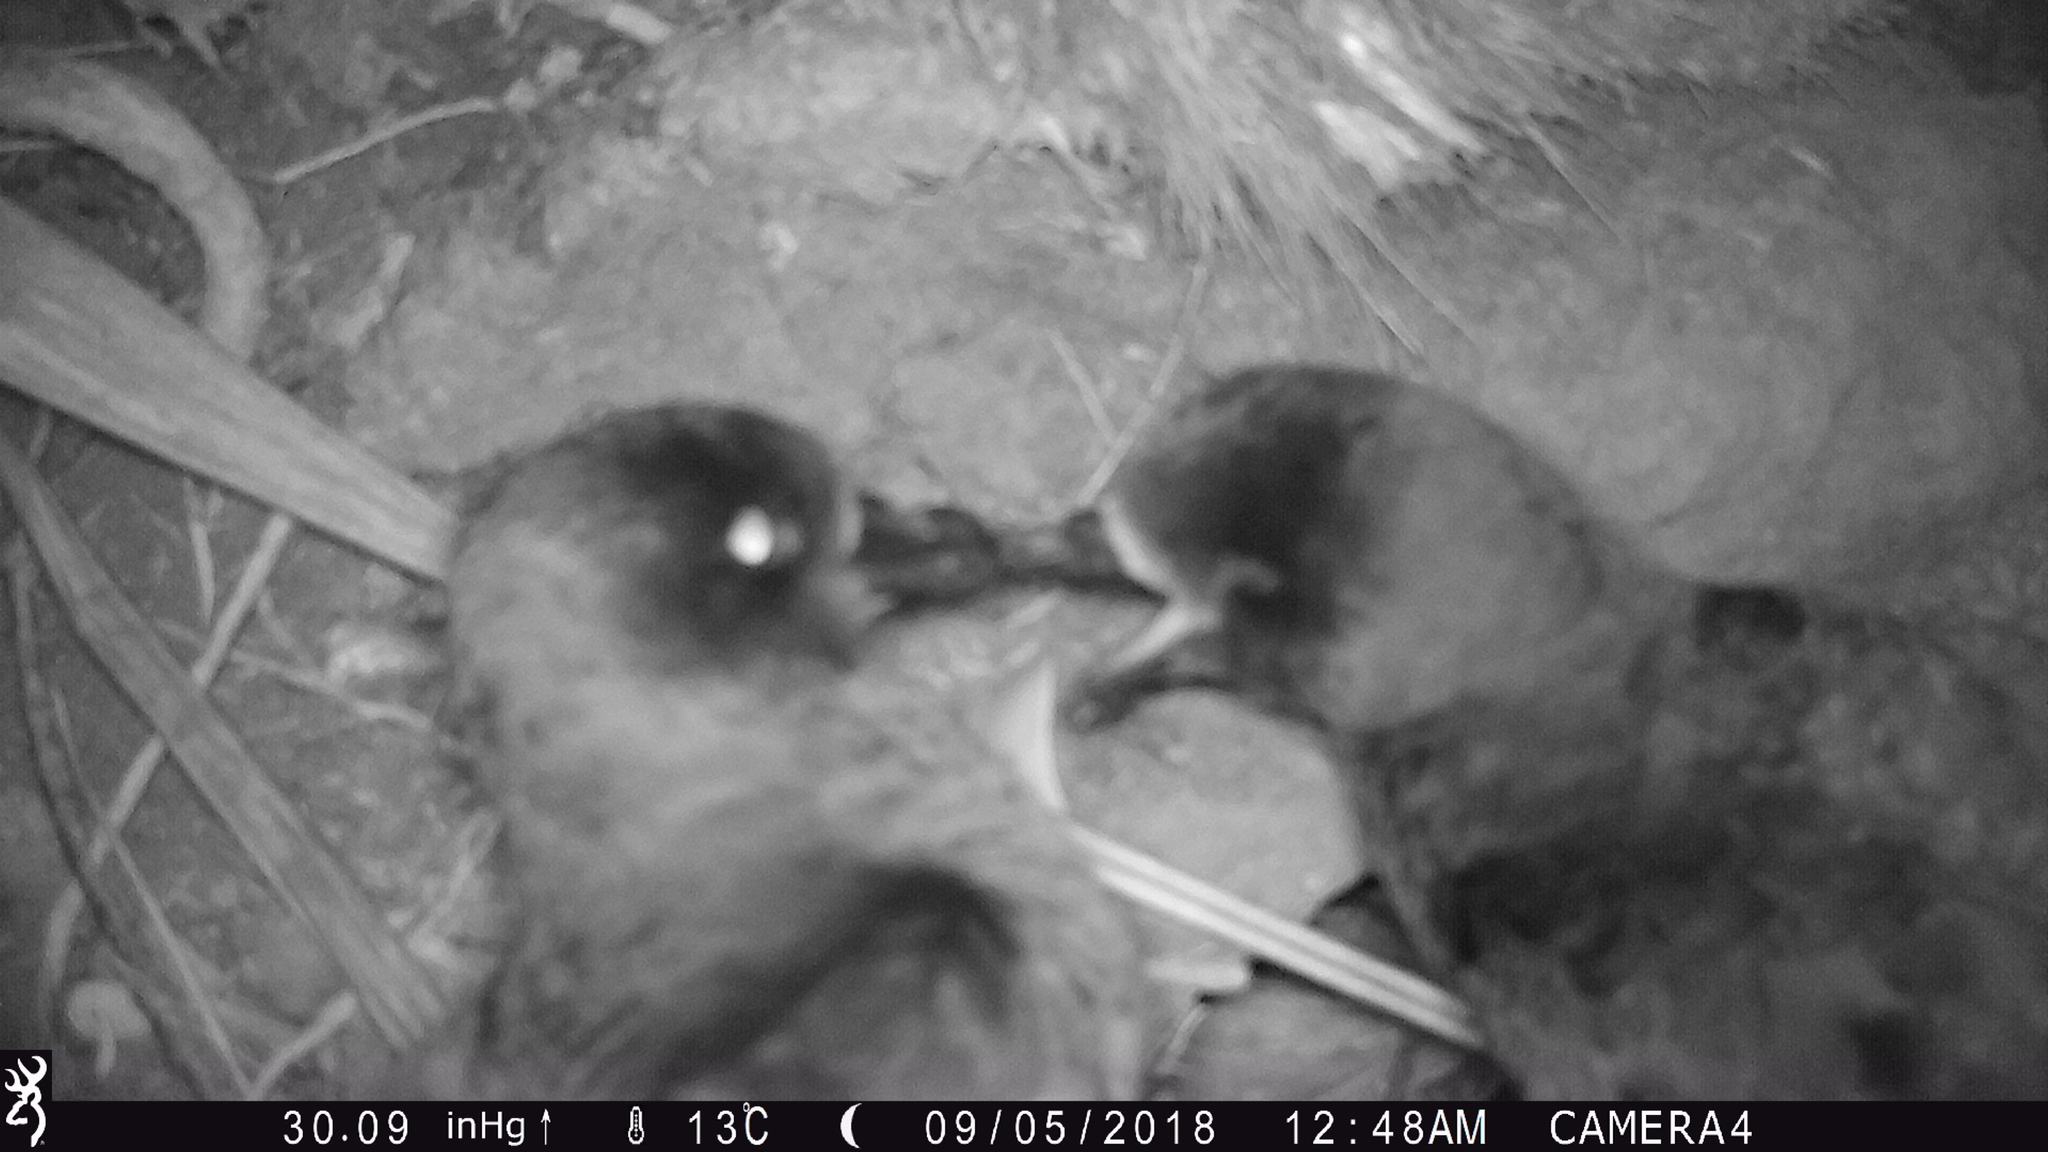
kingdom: Animalia
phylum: Chordata
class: Aves
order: Procellariiformes
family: Procellariidae
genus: Pterodroma
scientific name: Pterodroma macroptera
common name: Great-winged petrel
